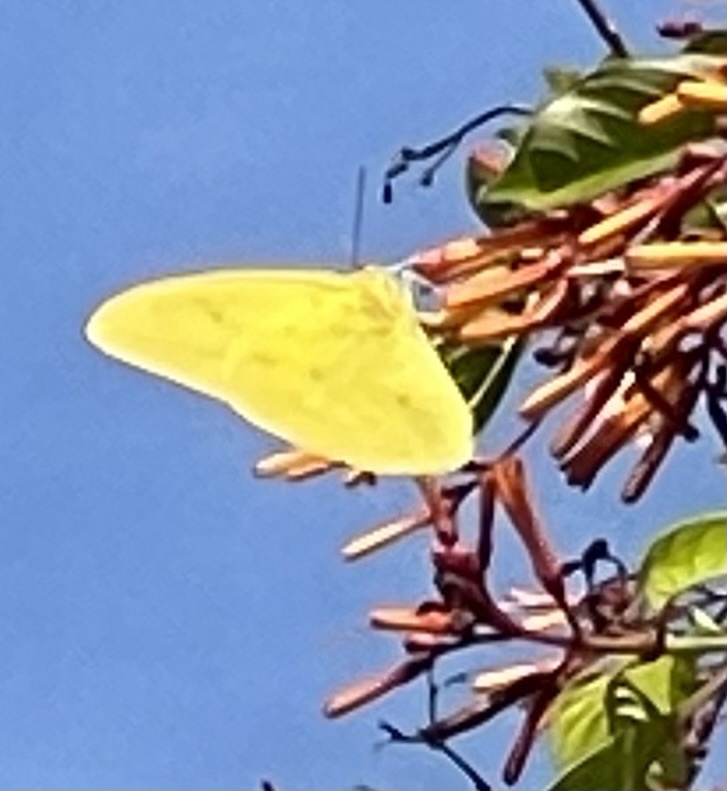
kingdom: Animalia
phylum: Arthropoda
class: Insecta
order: Lepidoptera
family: Pieridae
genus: Phoebis
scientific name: Phoebis agarithe
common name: Large orange sulphur
